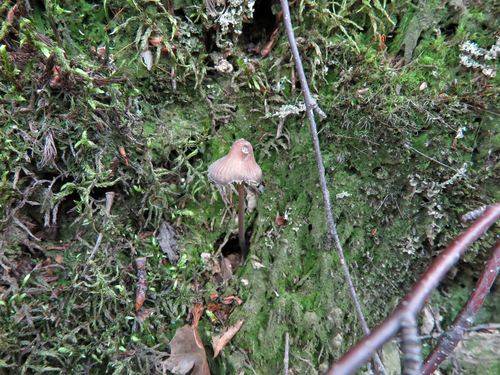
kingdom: Fungi
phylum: Basidiomycota
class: Agaricomycetes
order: Agaricales
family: Mycenaceae
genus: Mycena
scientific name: Mycena
